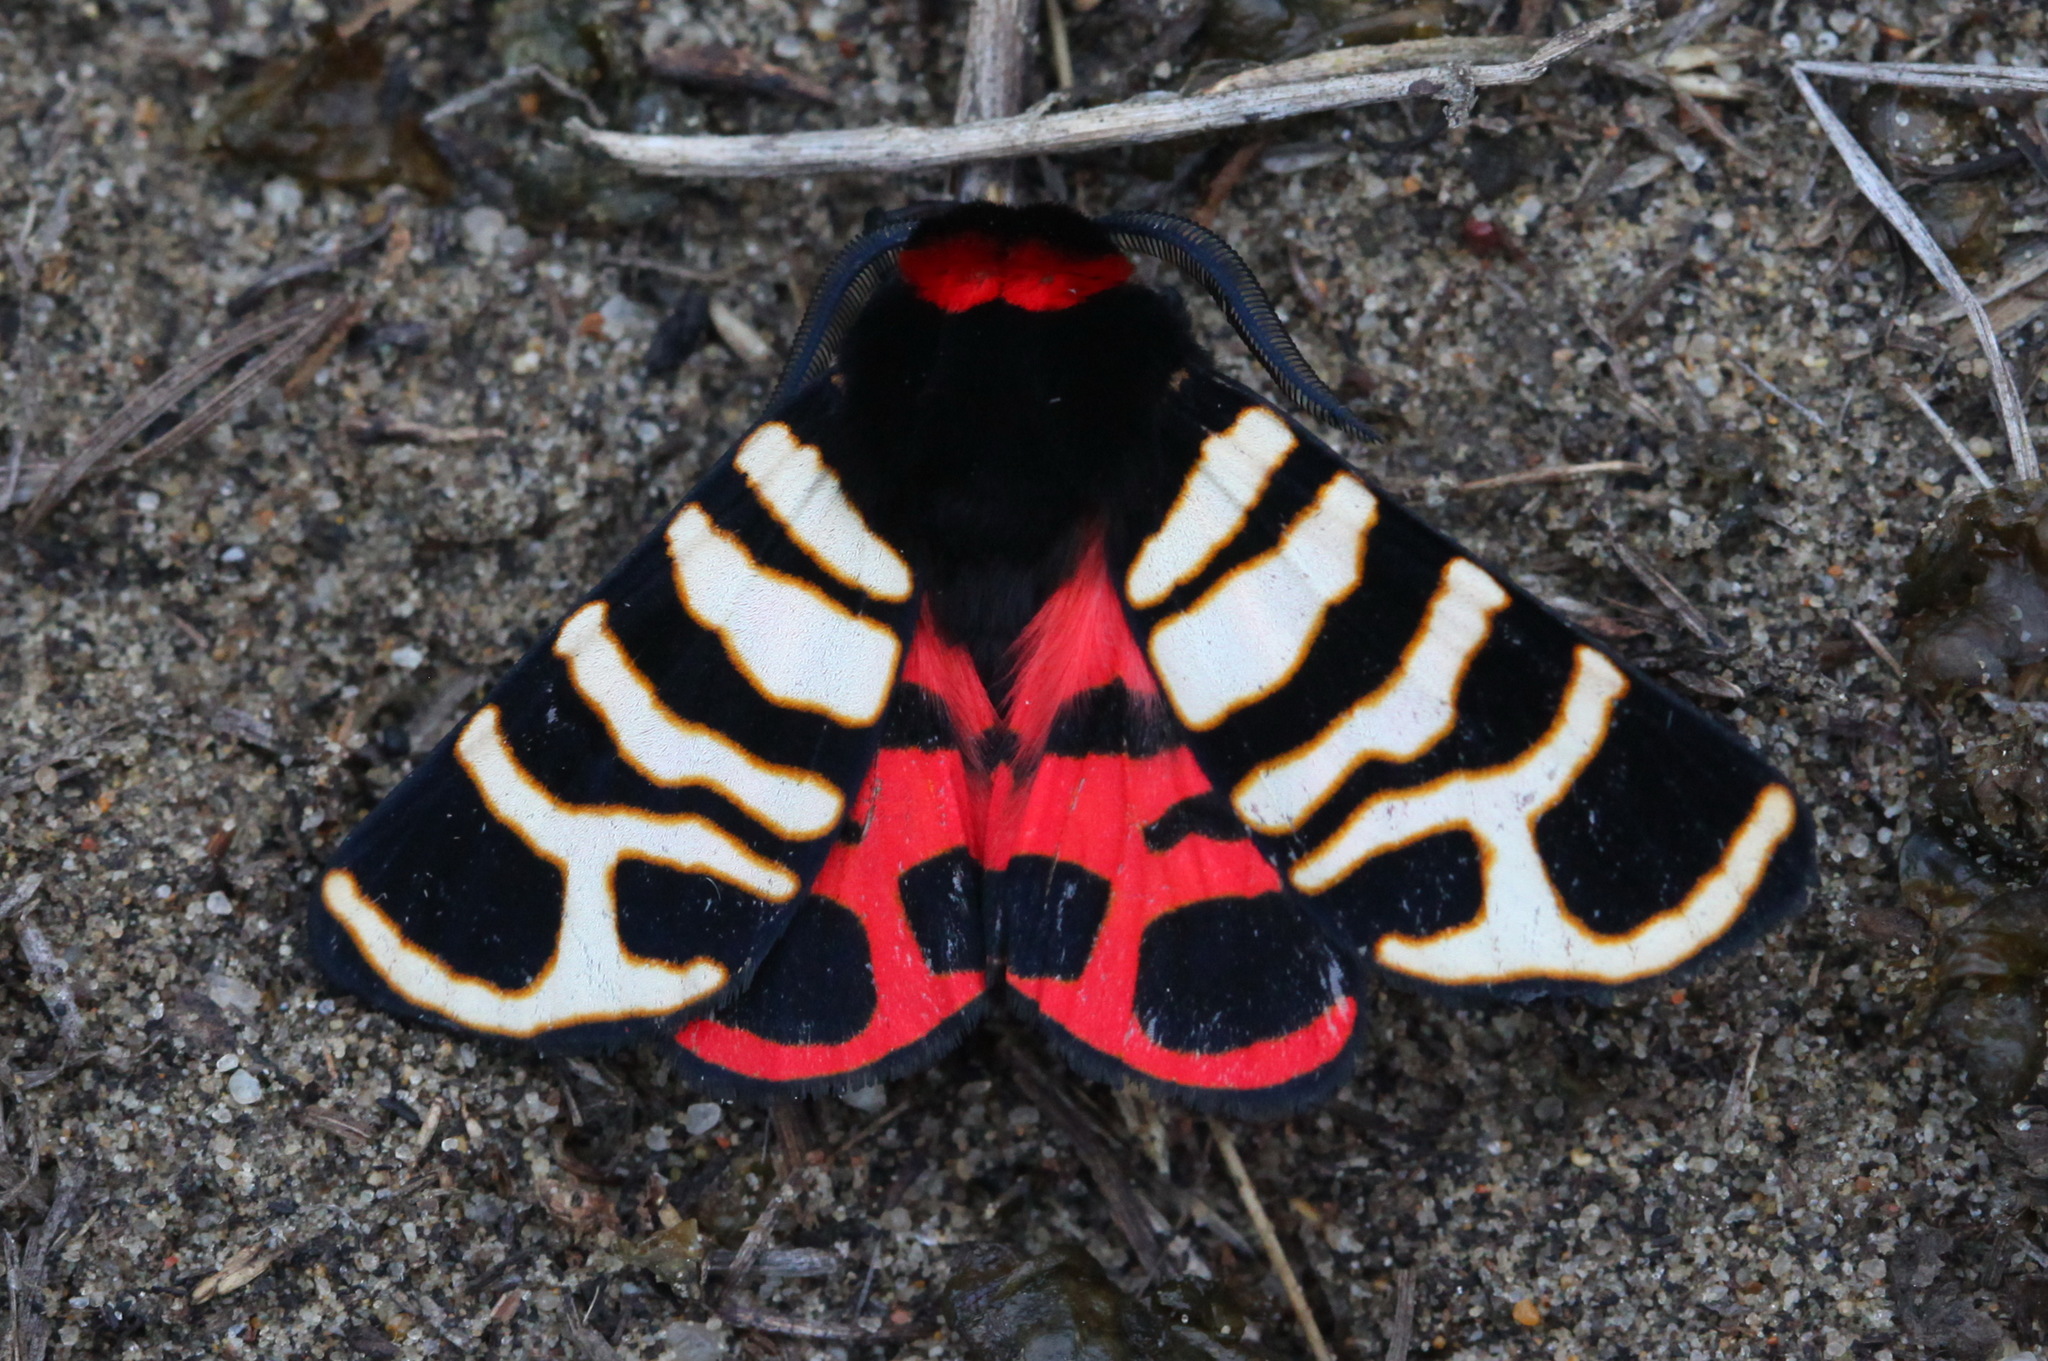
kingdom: Animalia
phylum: Arthropoda
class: Insecta
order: Lepidoptera
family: Erebidae
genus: Eucharia
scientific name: Eucharia festiva
